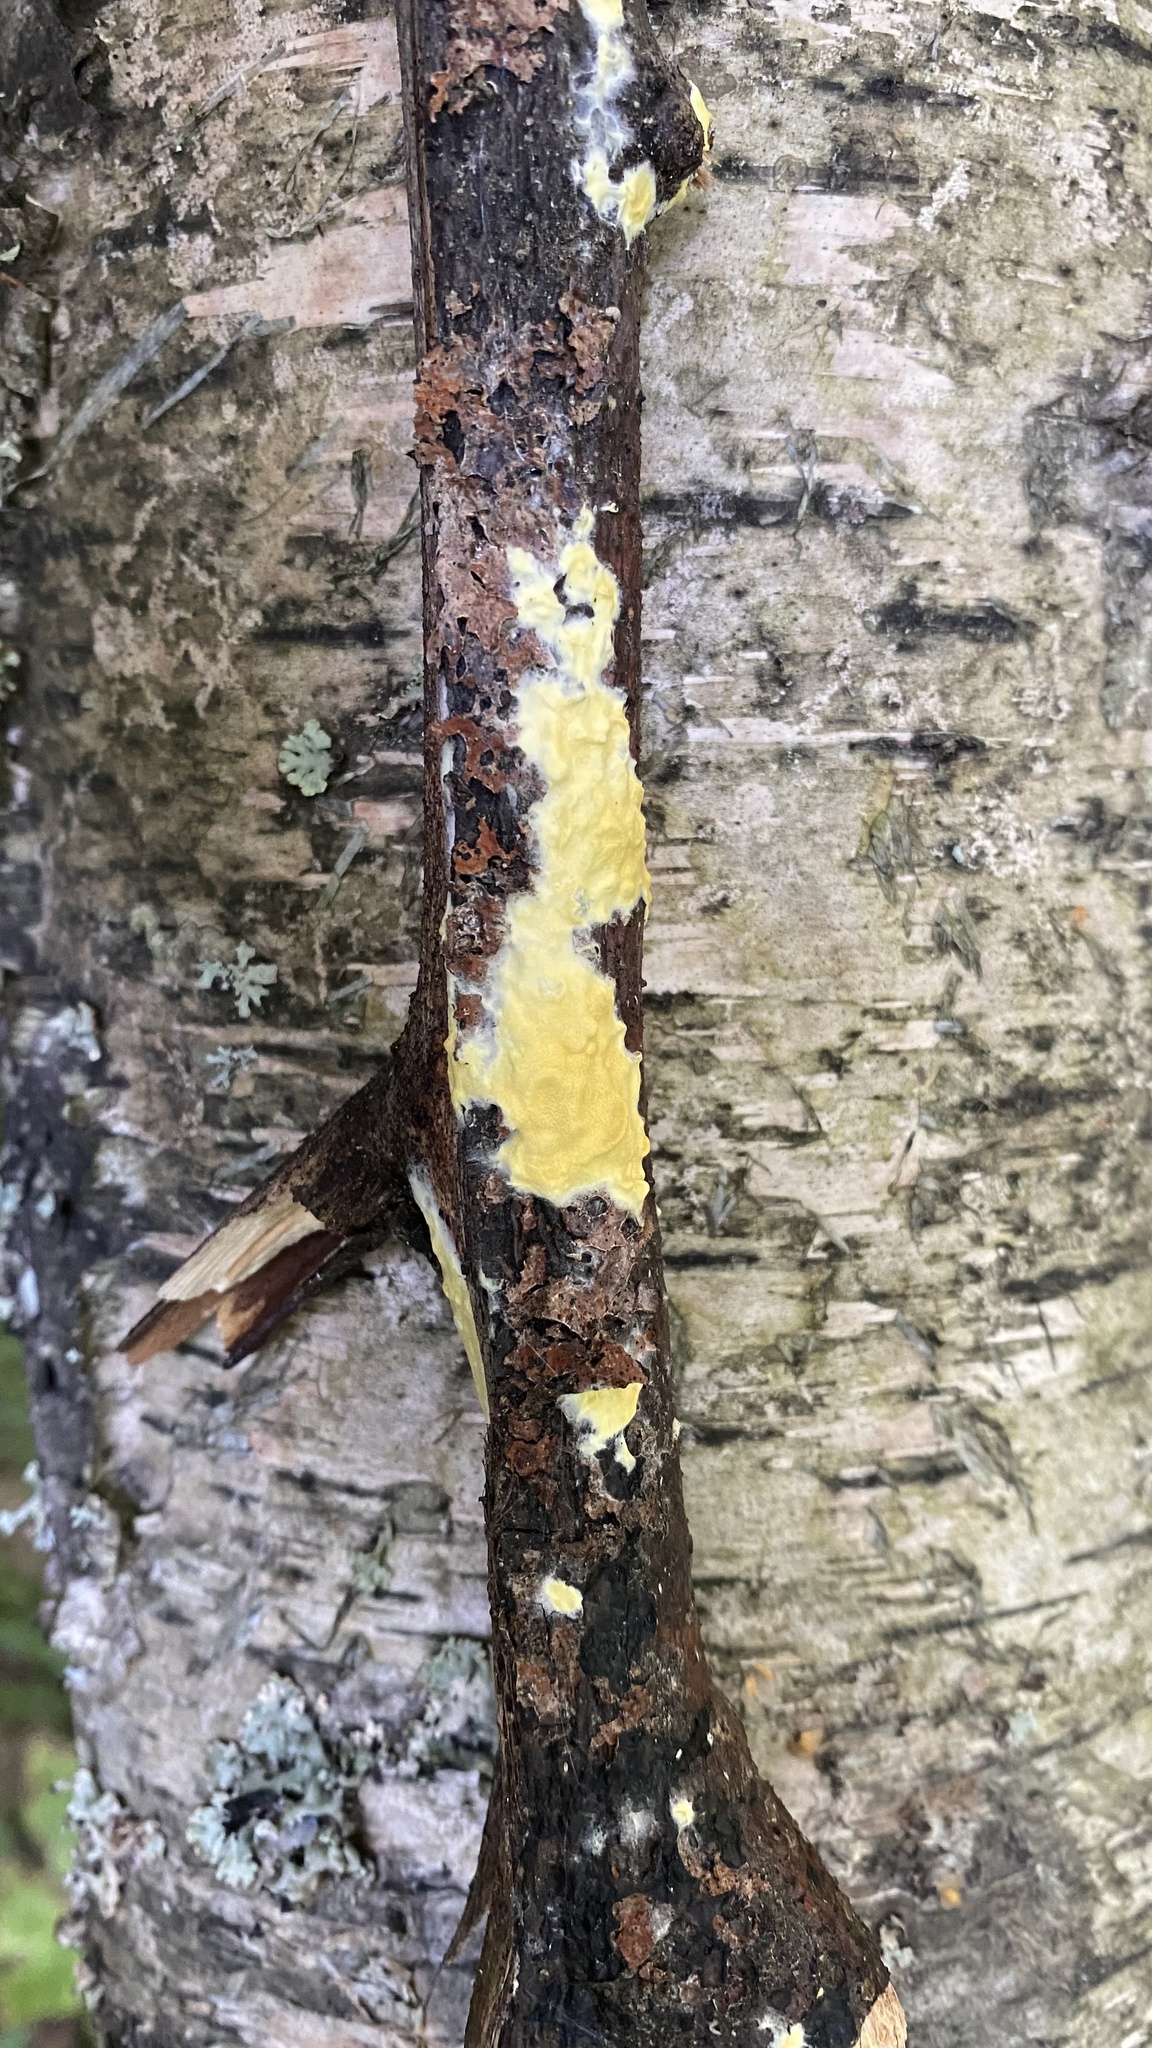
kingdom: Fungi
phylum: Ascomycota
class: Sordariomycetes
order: Hypocreales
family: Hypocreaceae
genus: Trichoderma
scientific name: Trichoderma sulphureum
